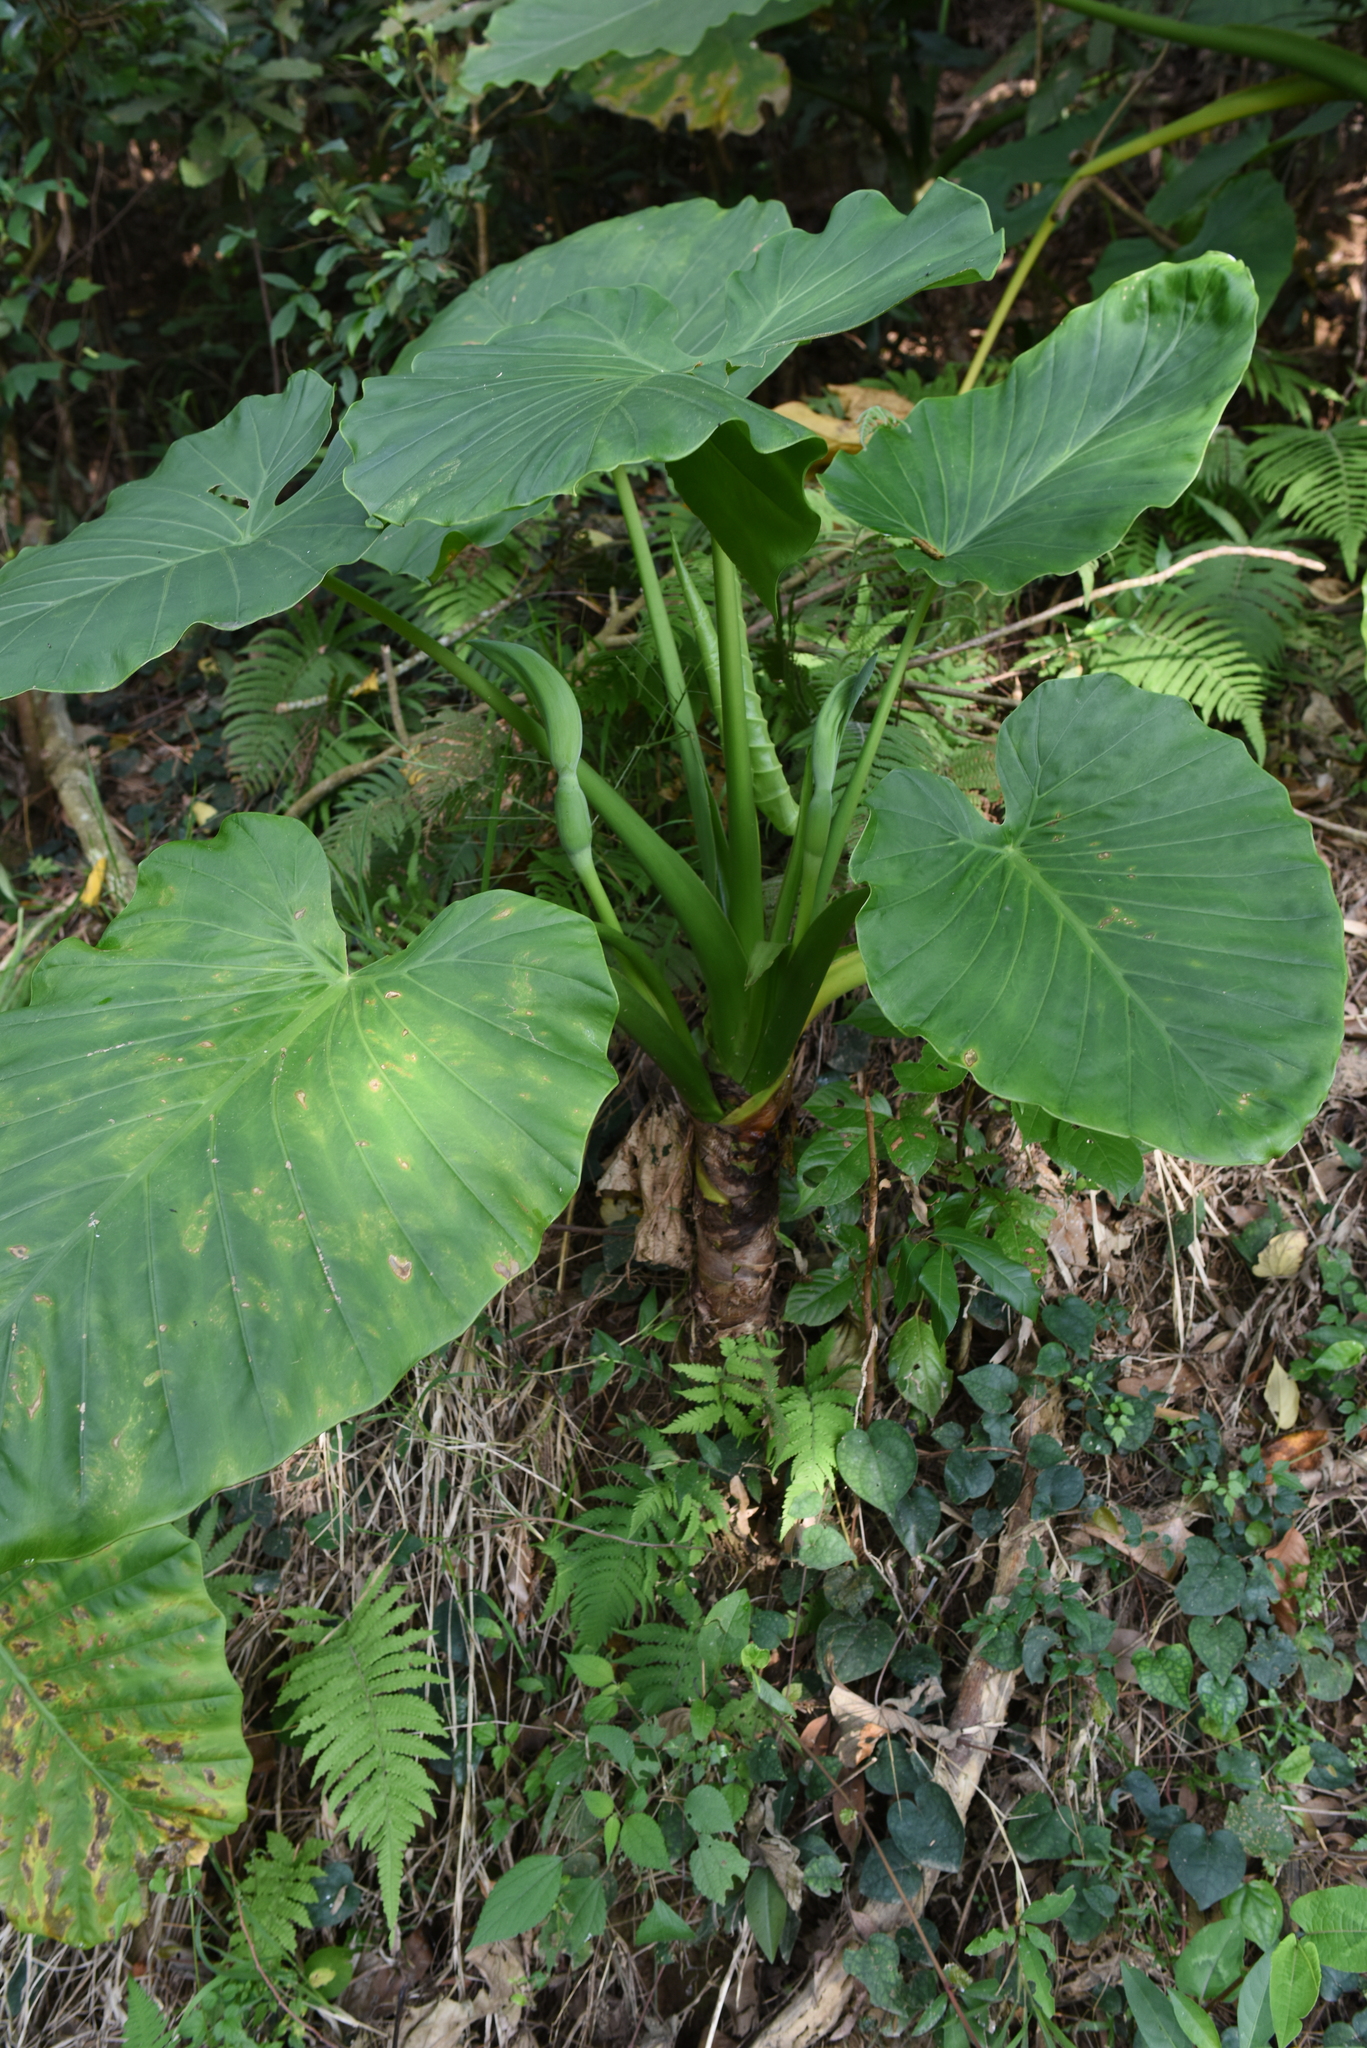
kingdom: Plantae
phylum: Tracheophyta
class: Liliopsida
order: Alismatales
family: Araceae
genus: Alocasia
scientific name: Alocasia odora
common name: Asian taro
